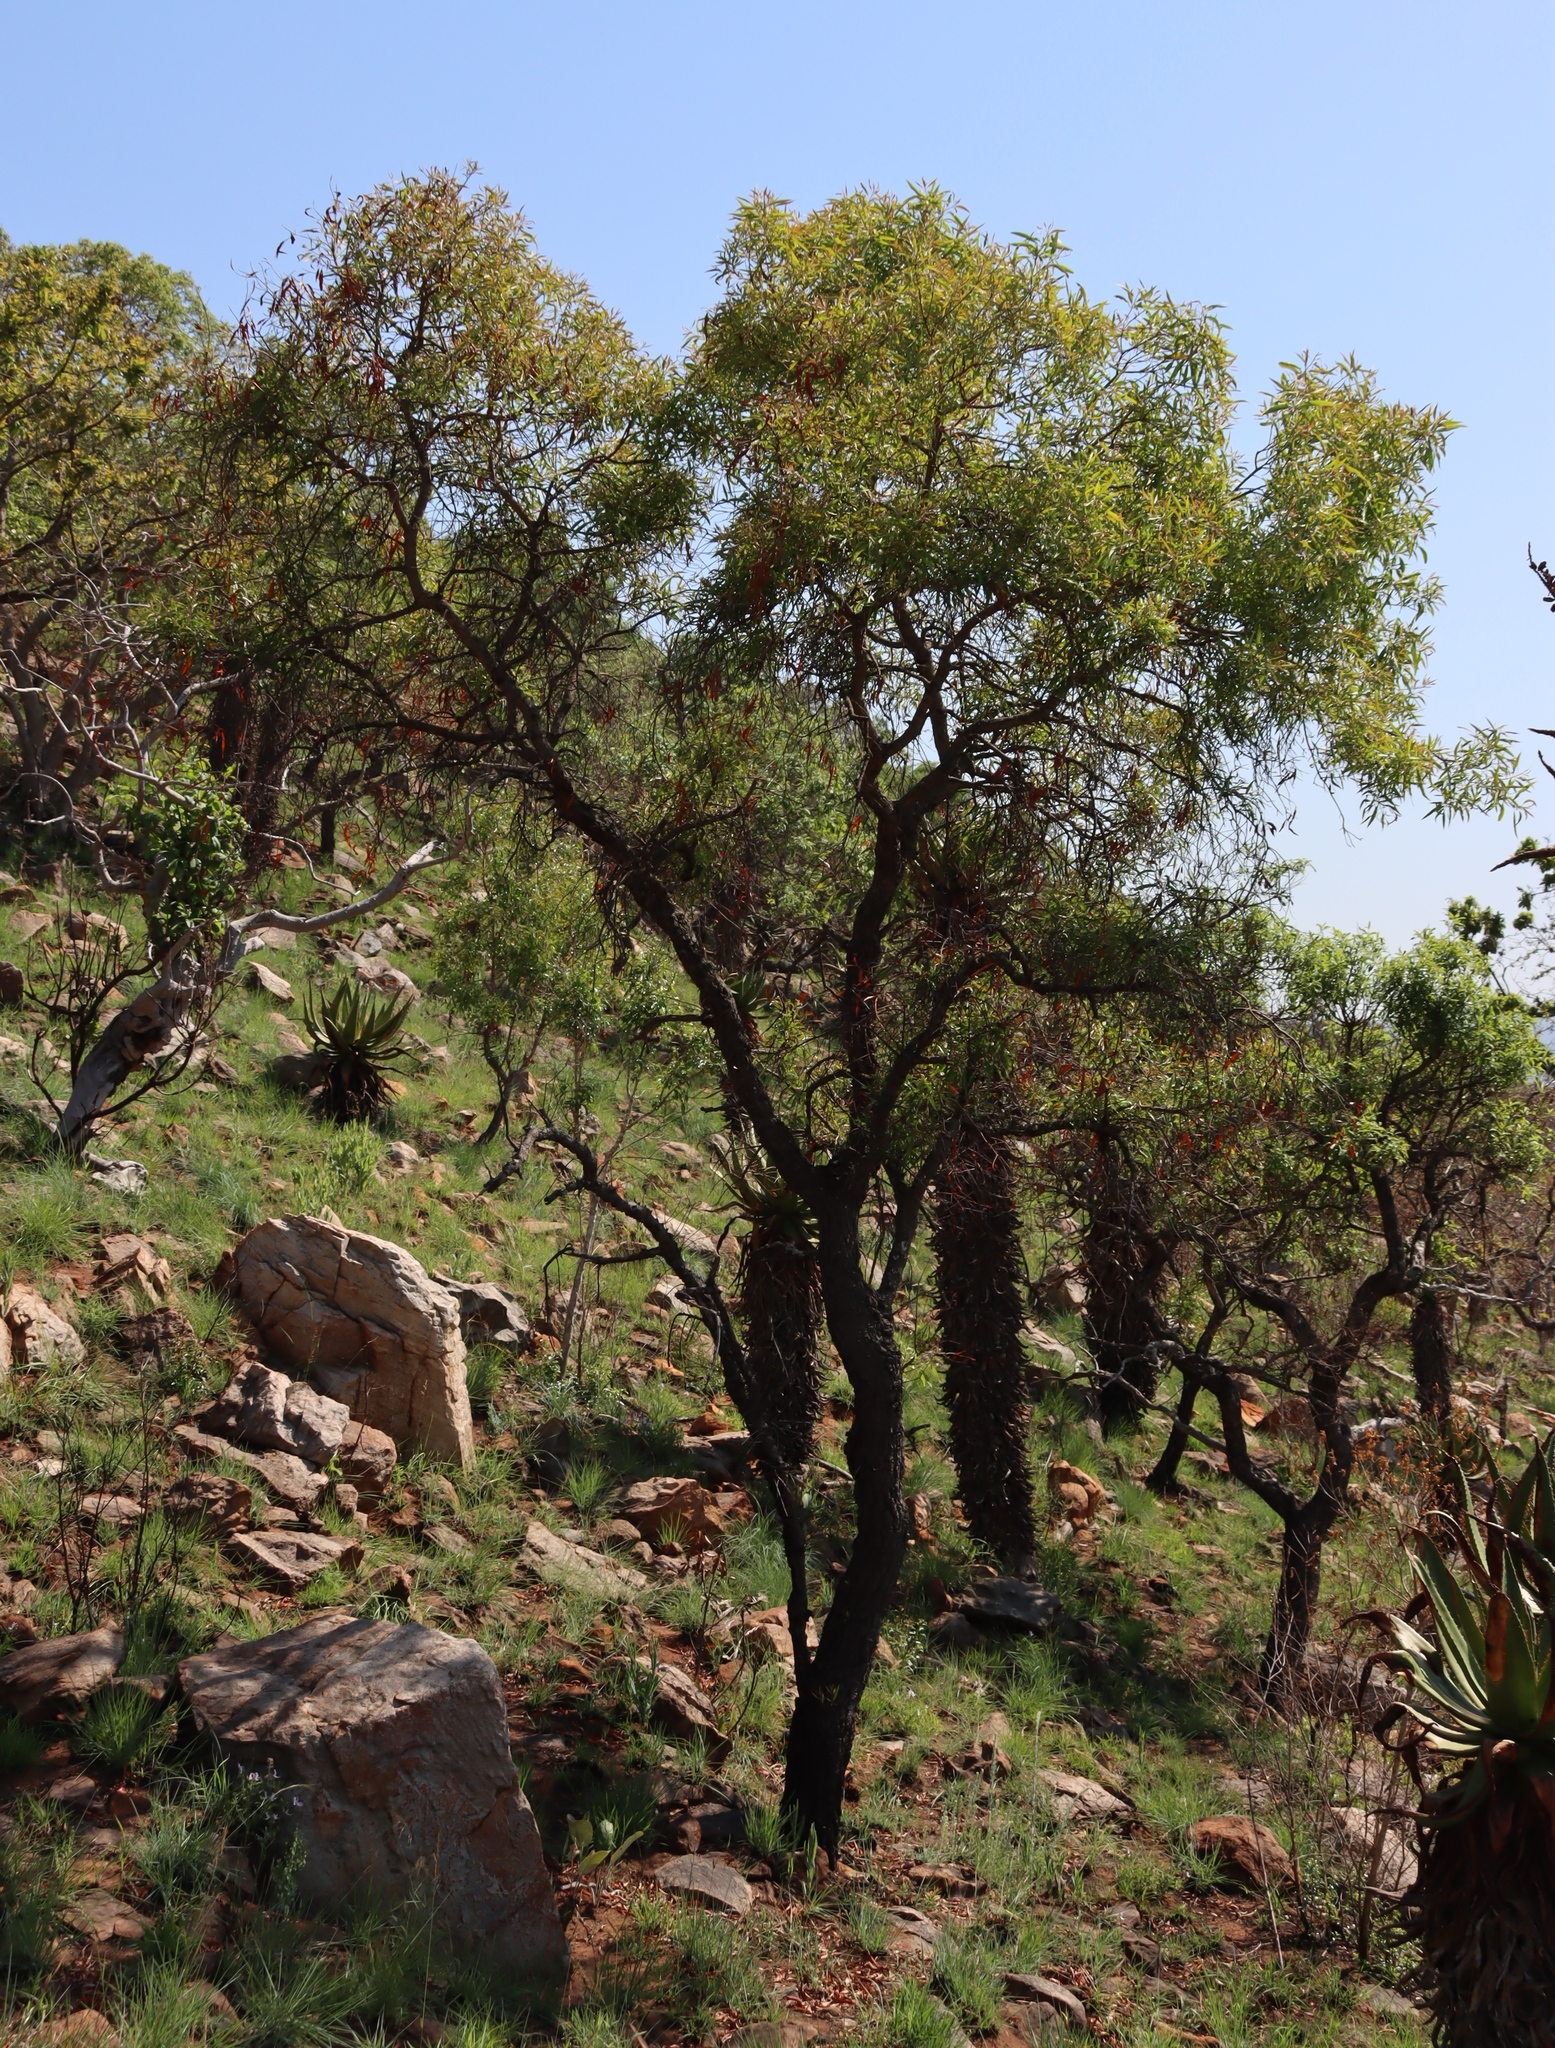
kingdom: Plantae
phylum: Tracheophyta
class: Magnoliopsida
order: Proteales
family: Proteaceae
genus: Faurea
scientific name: Faurea saligna
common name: African bean
